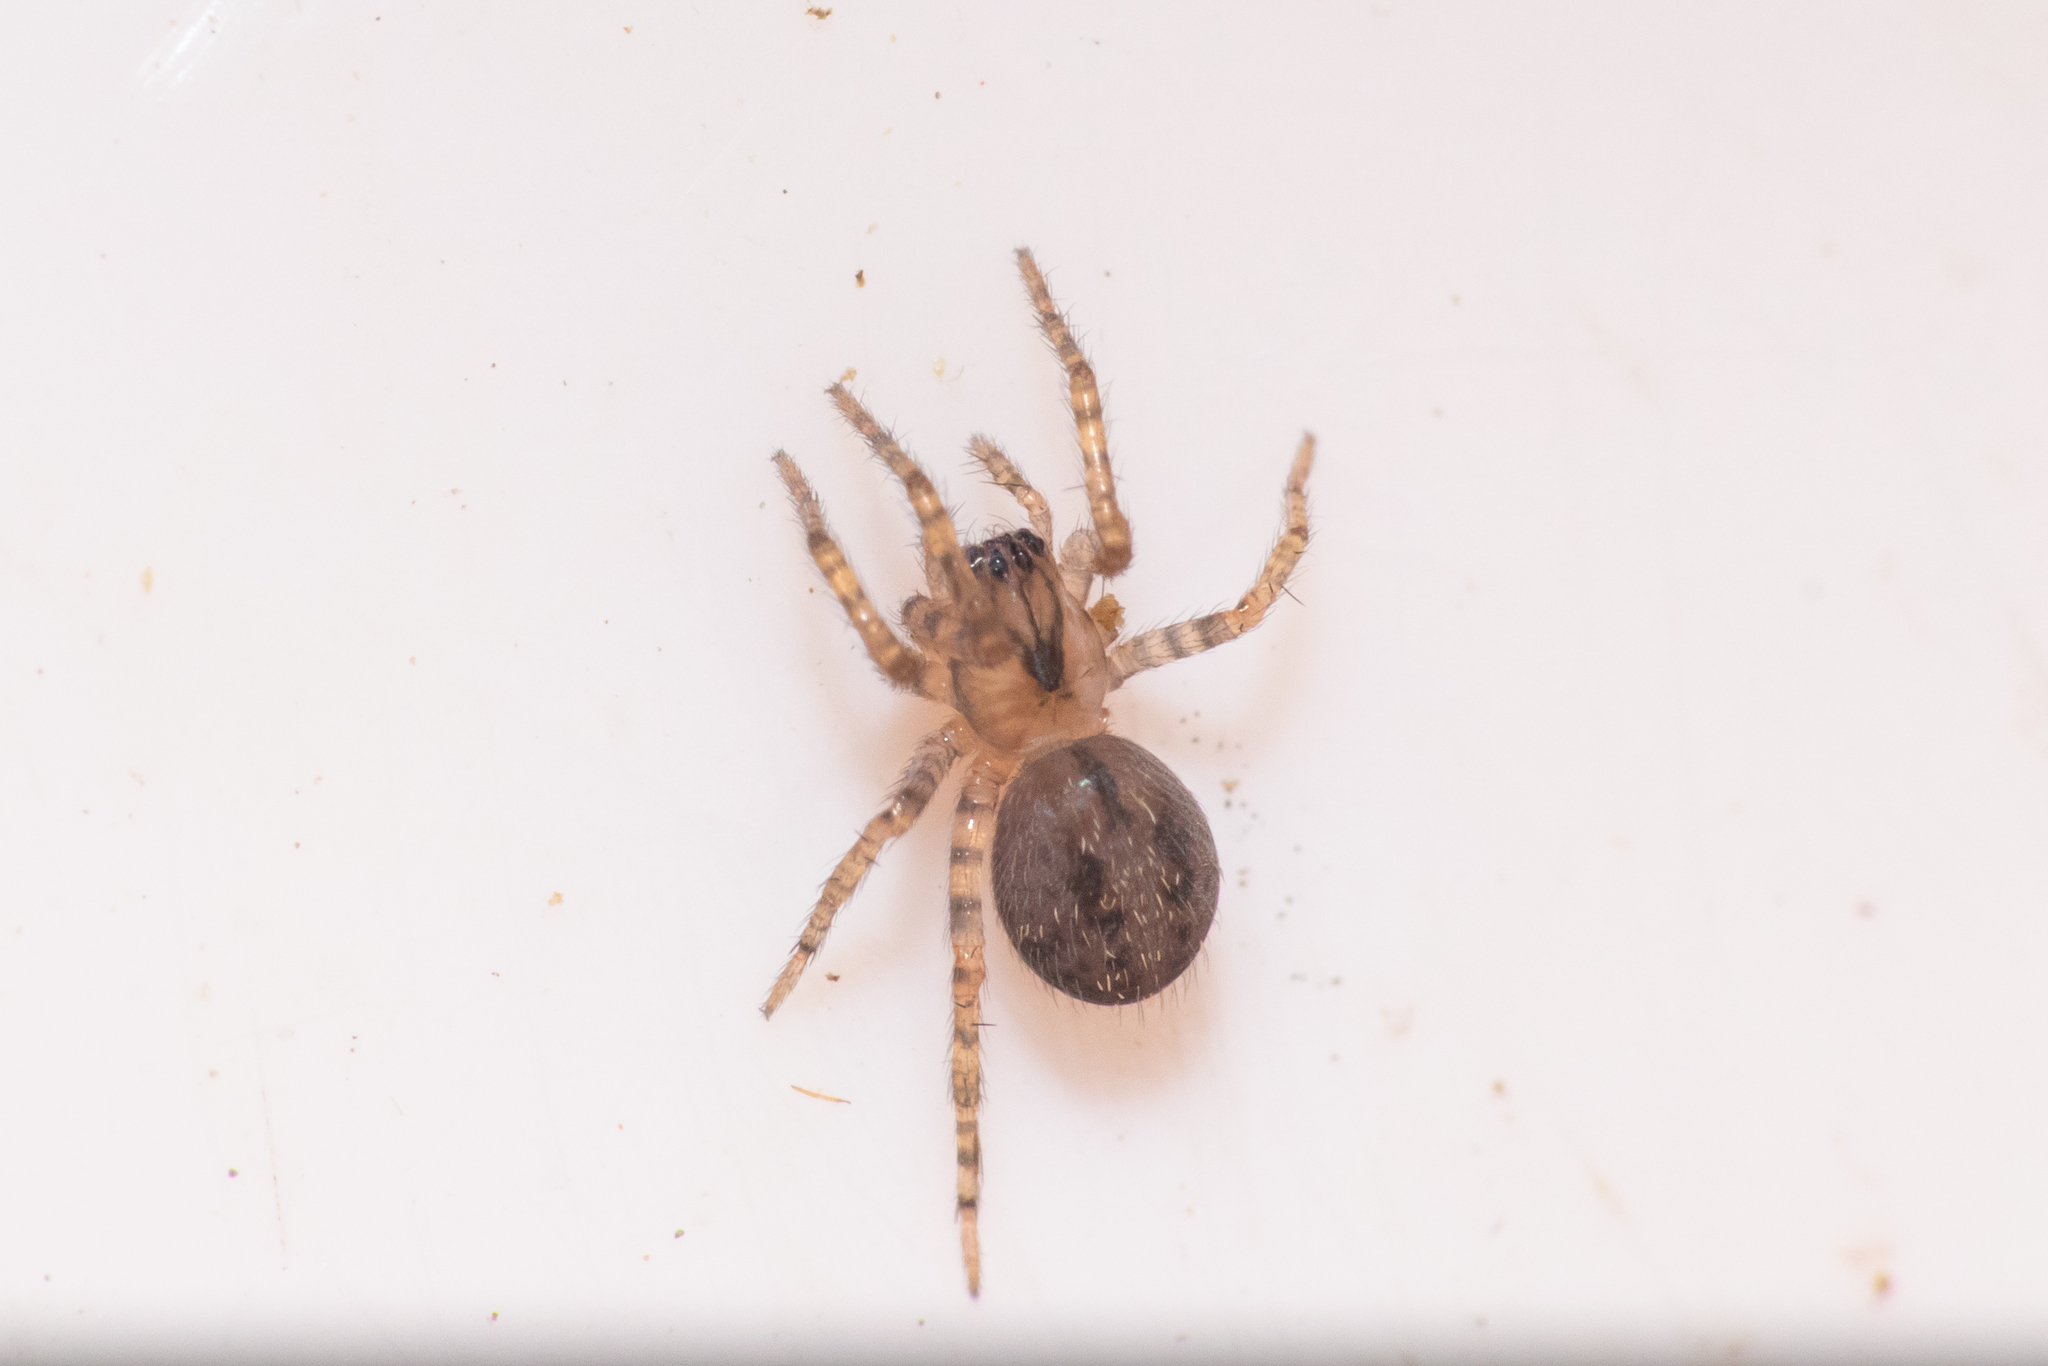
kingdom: Animalia
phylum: Arthropoda
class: Arachnida
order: Araneae
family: Stiphidiidae
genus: Neoramia
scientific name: Neoramia matua
